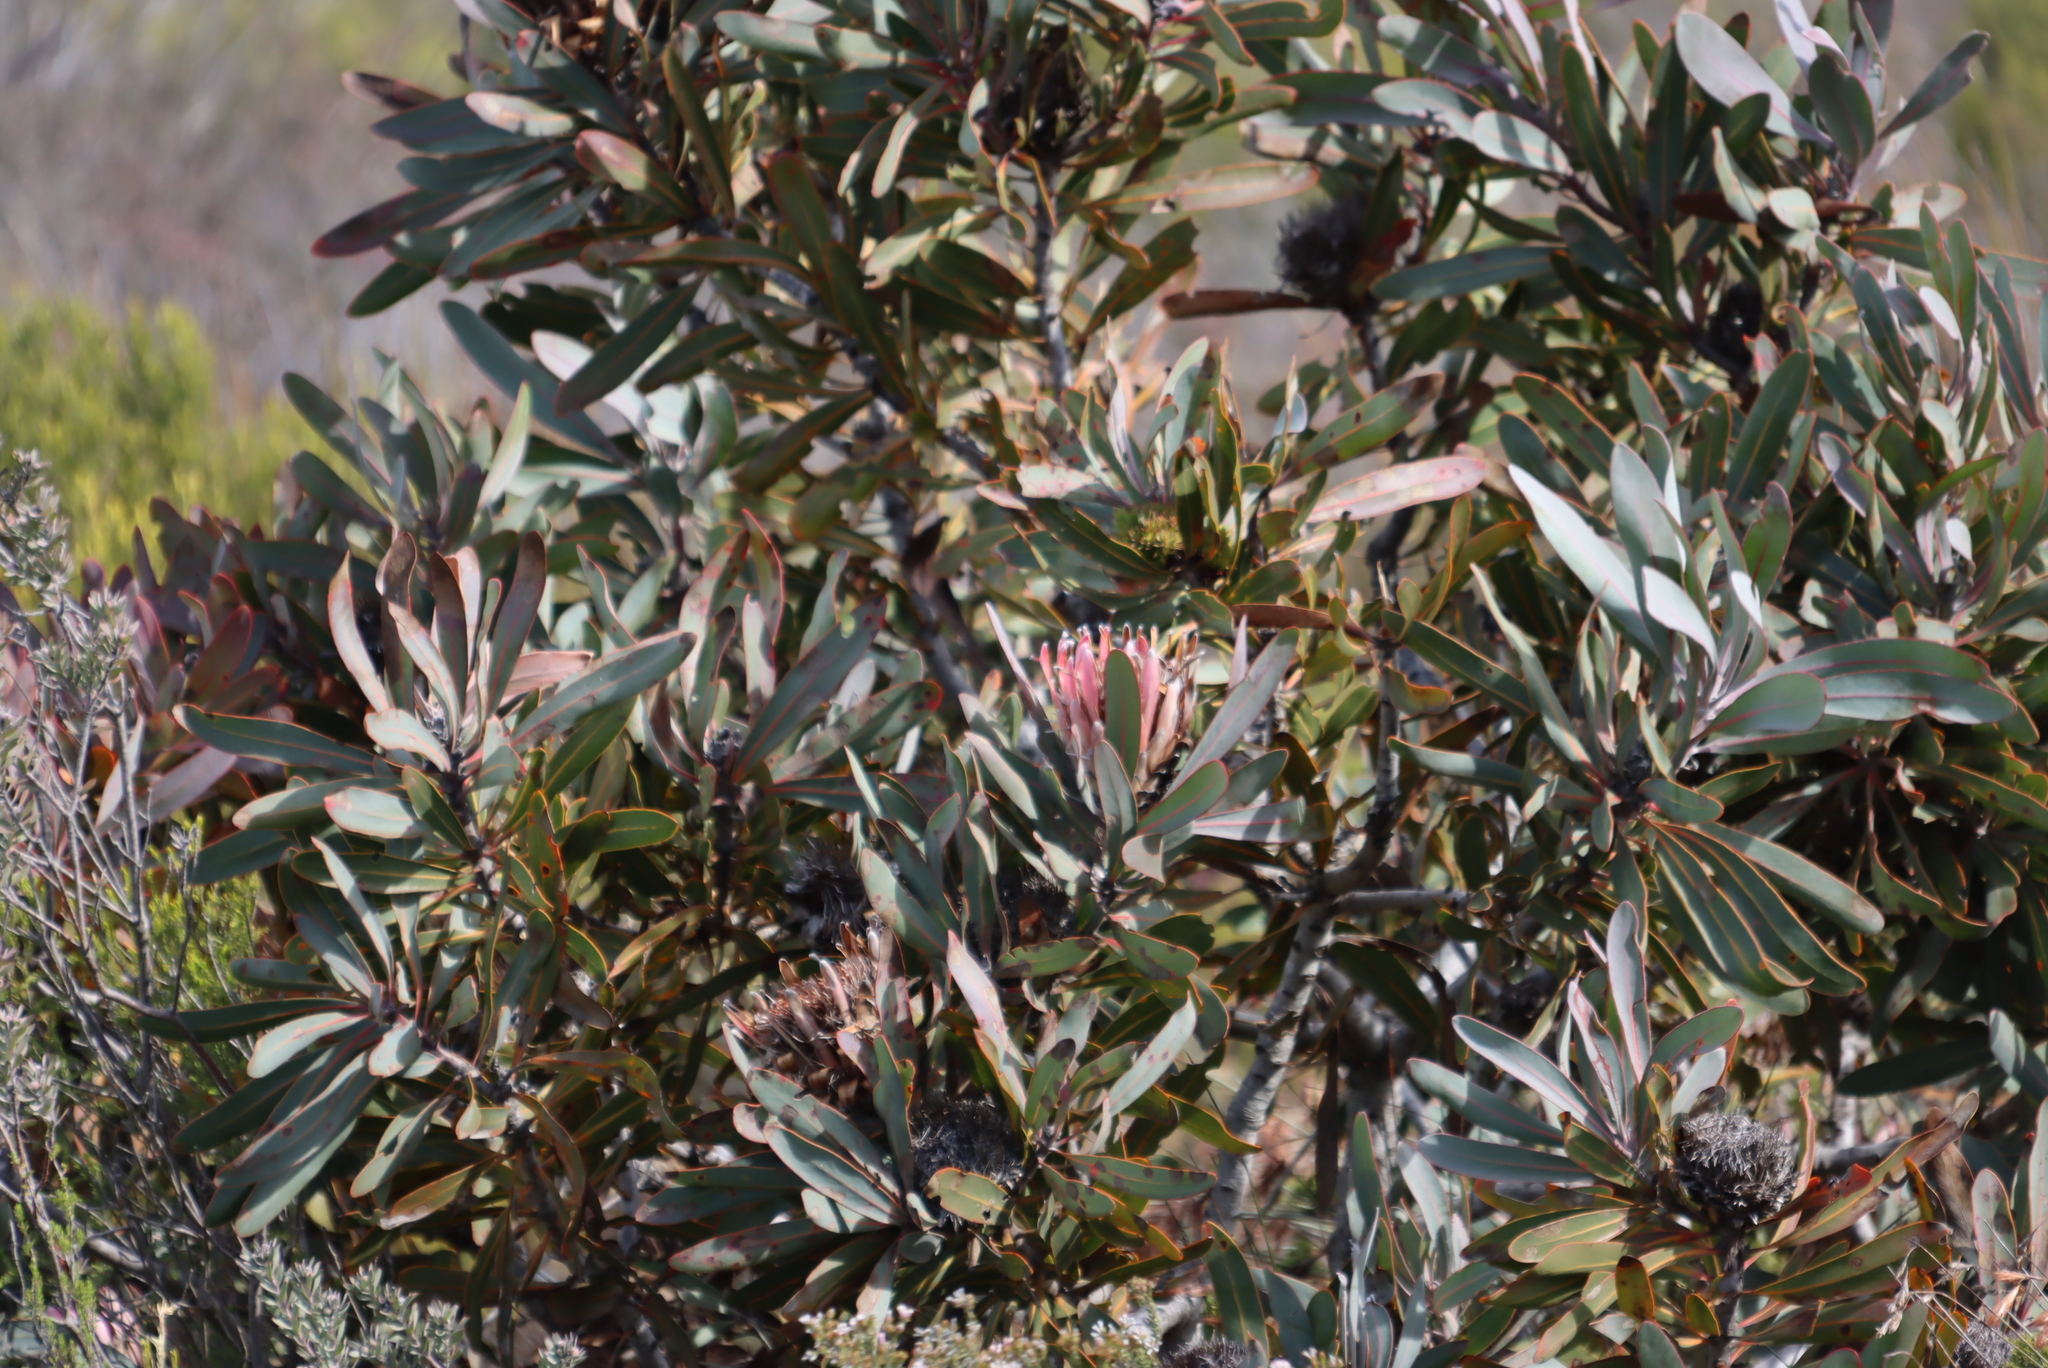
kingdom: Plantae
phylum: Tracheophyta
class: Magnoliopsida
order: Proteales
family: Proteaceae
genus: Protea
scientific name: Protea lorifolia
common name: Strap-leaved protea
